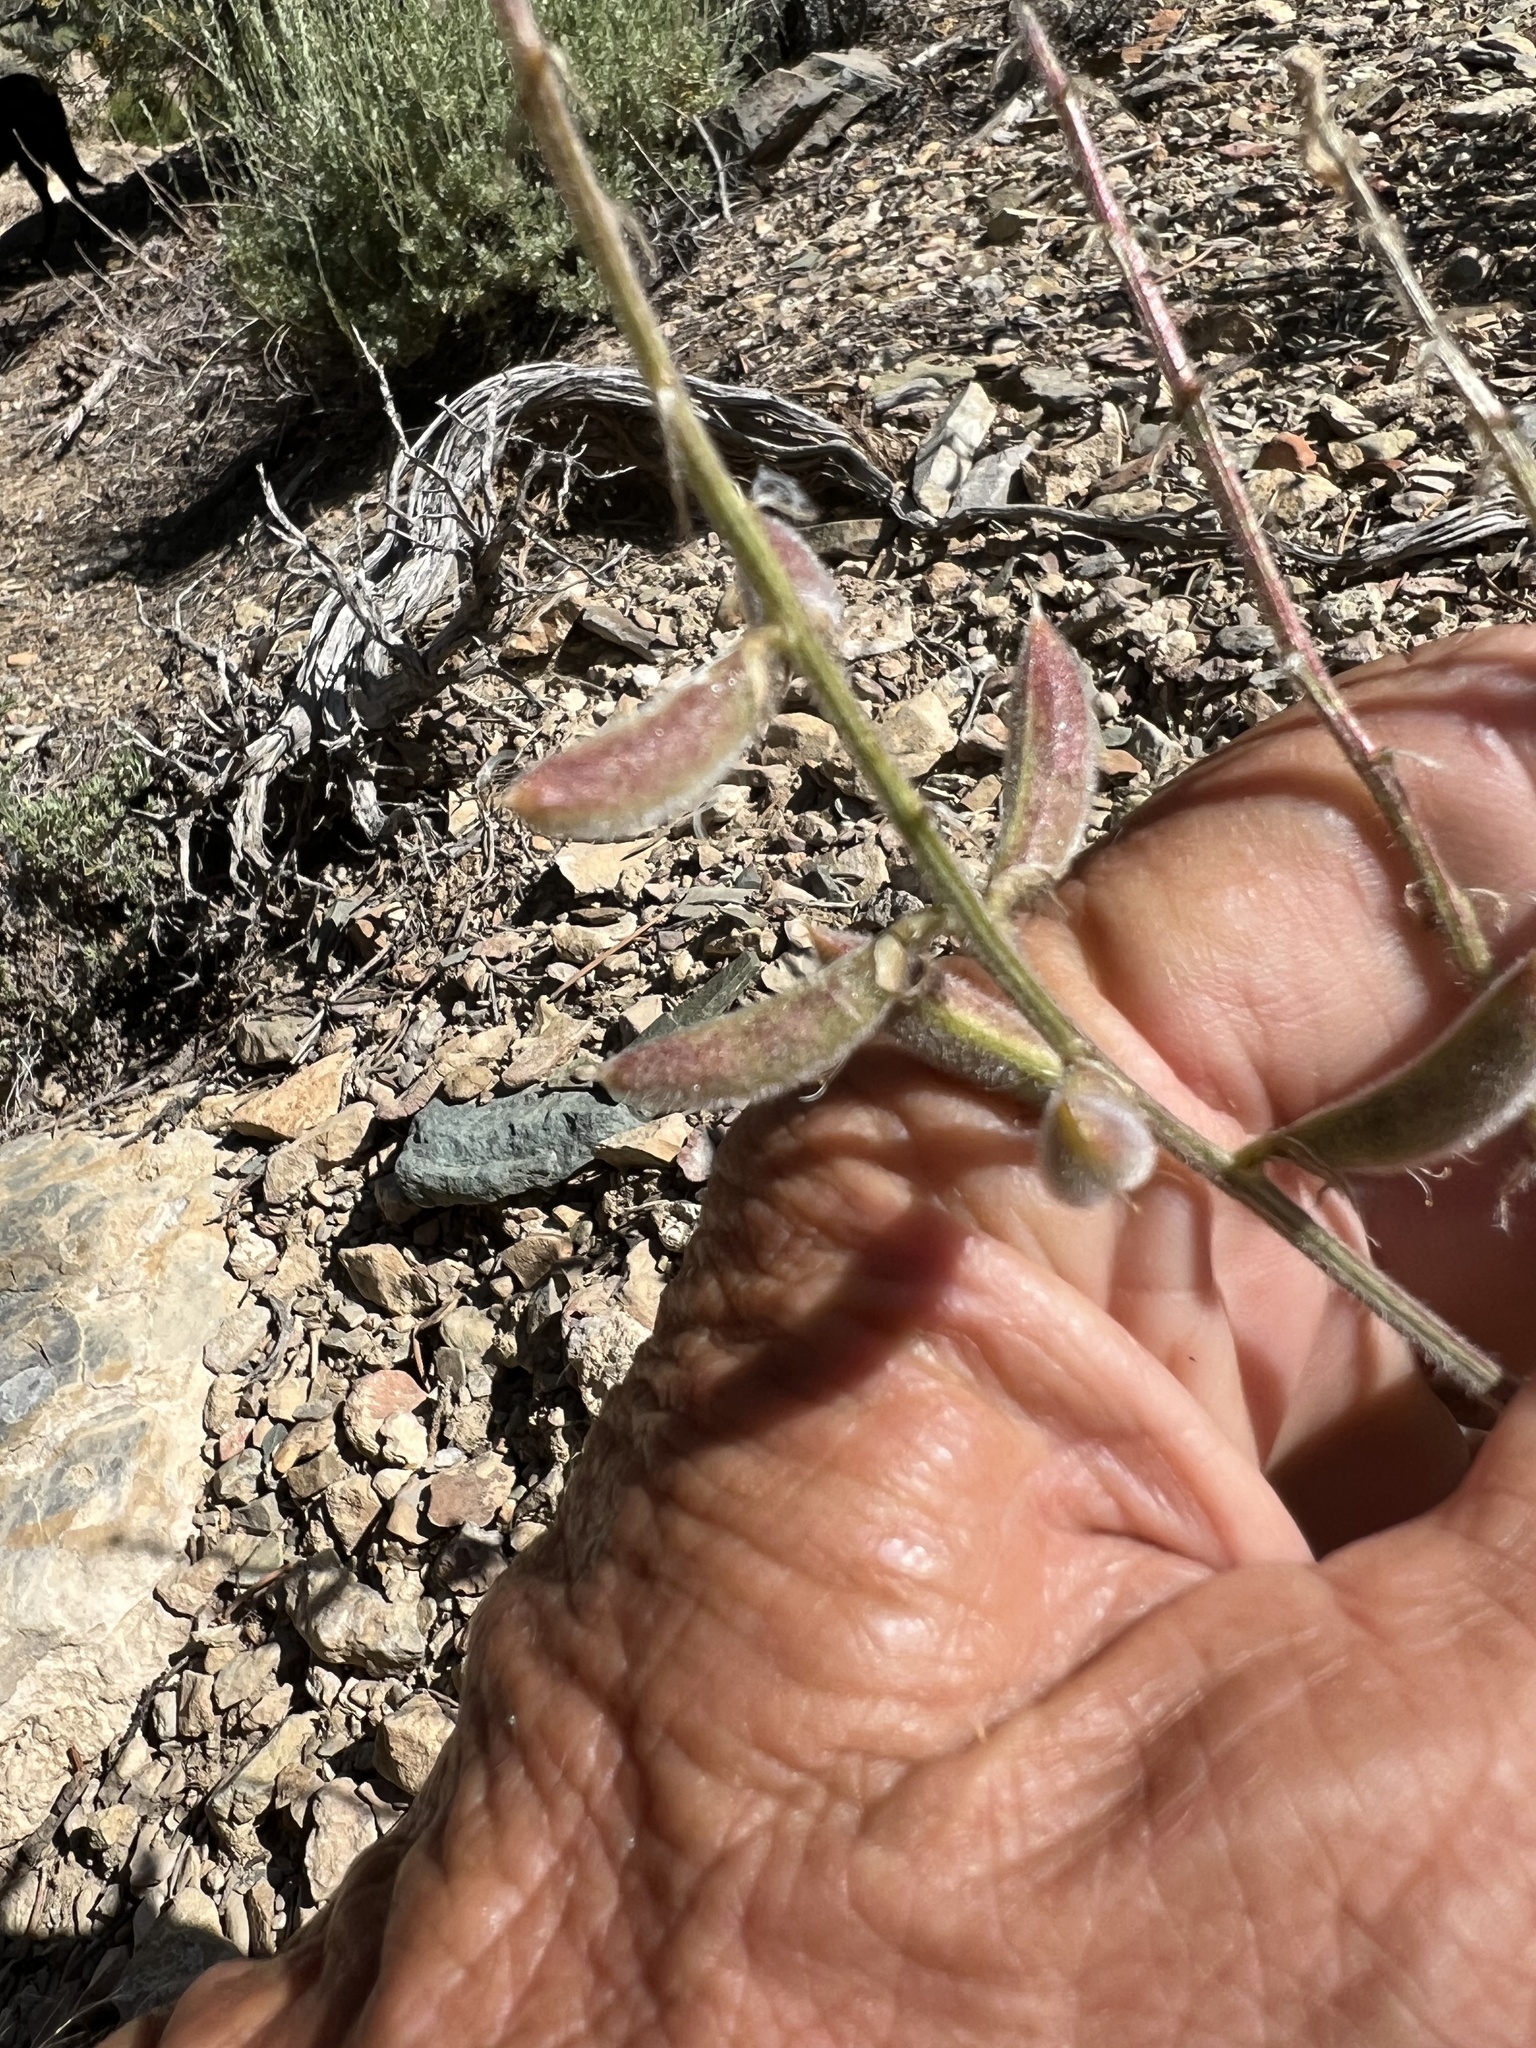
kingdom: Plantae
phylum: Tracheophyta
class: Magnoliopsida
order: Fabales
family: Fabaceae
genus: Astragalus
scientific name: Astragalus minthorniae
